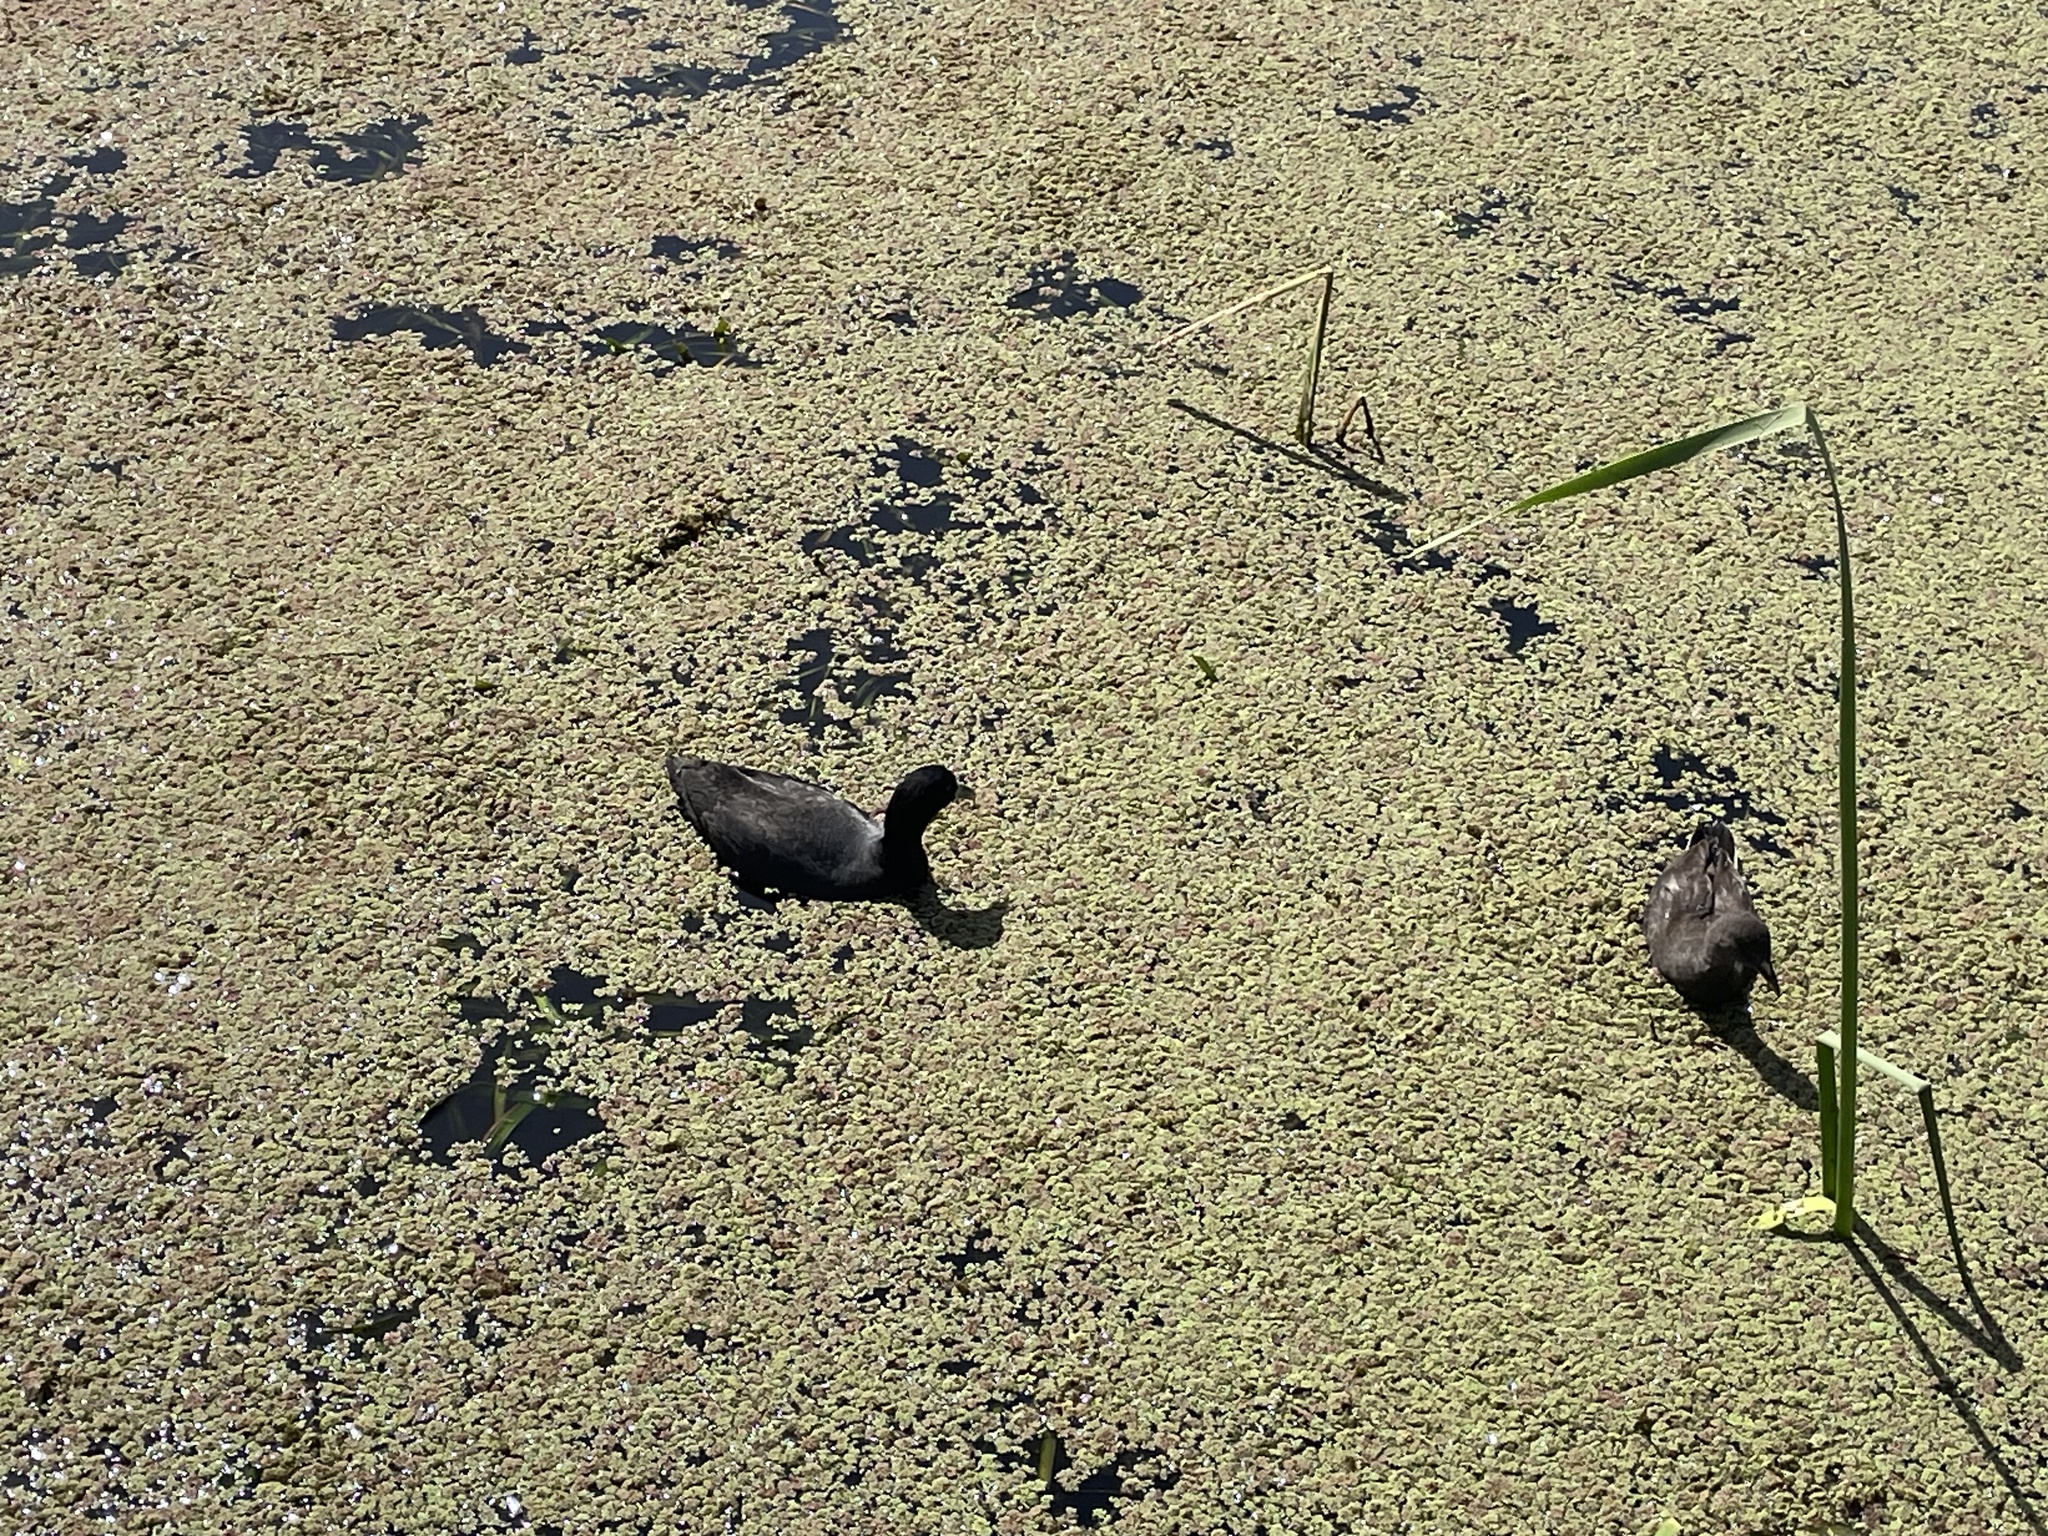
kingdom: Animalia
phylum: Chordata
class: Aves
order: Gruiformes
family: Rallidae
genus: Fulica
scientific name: Fulica atra
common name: Eurasian coot
